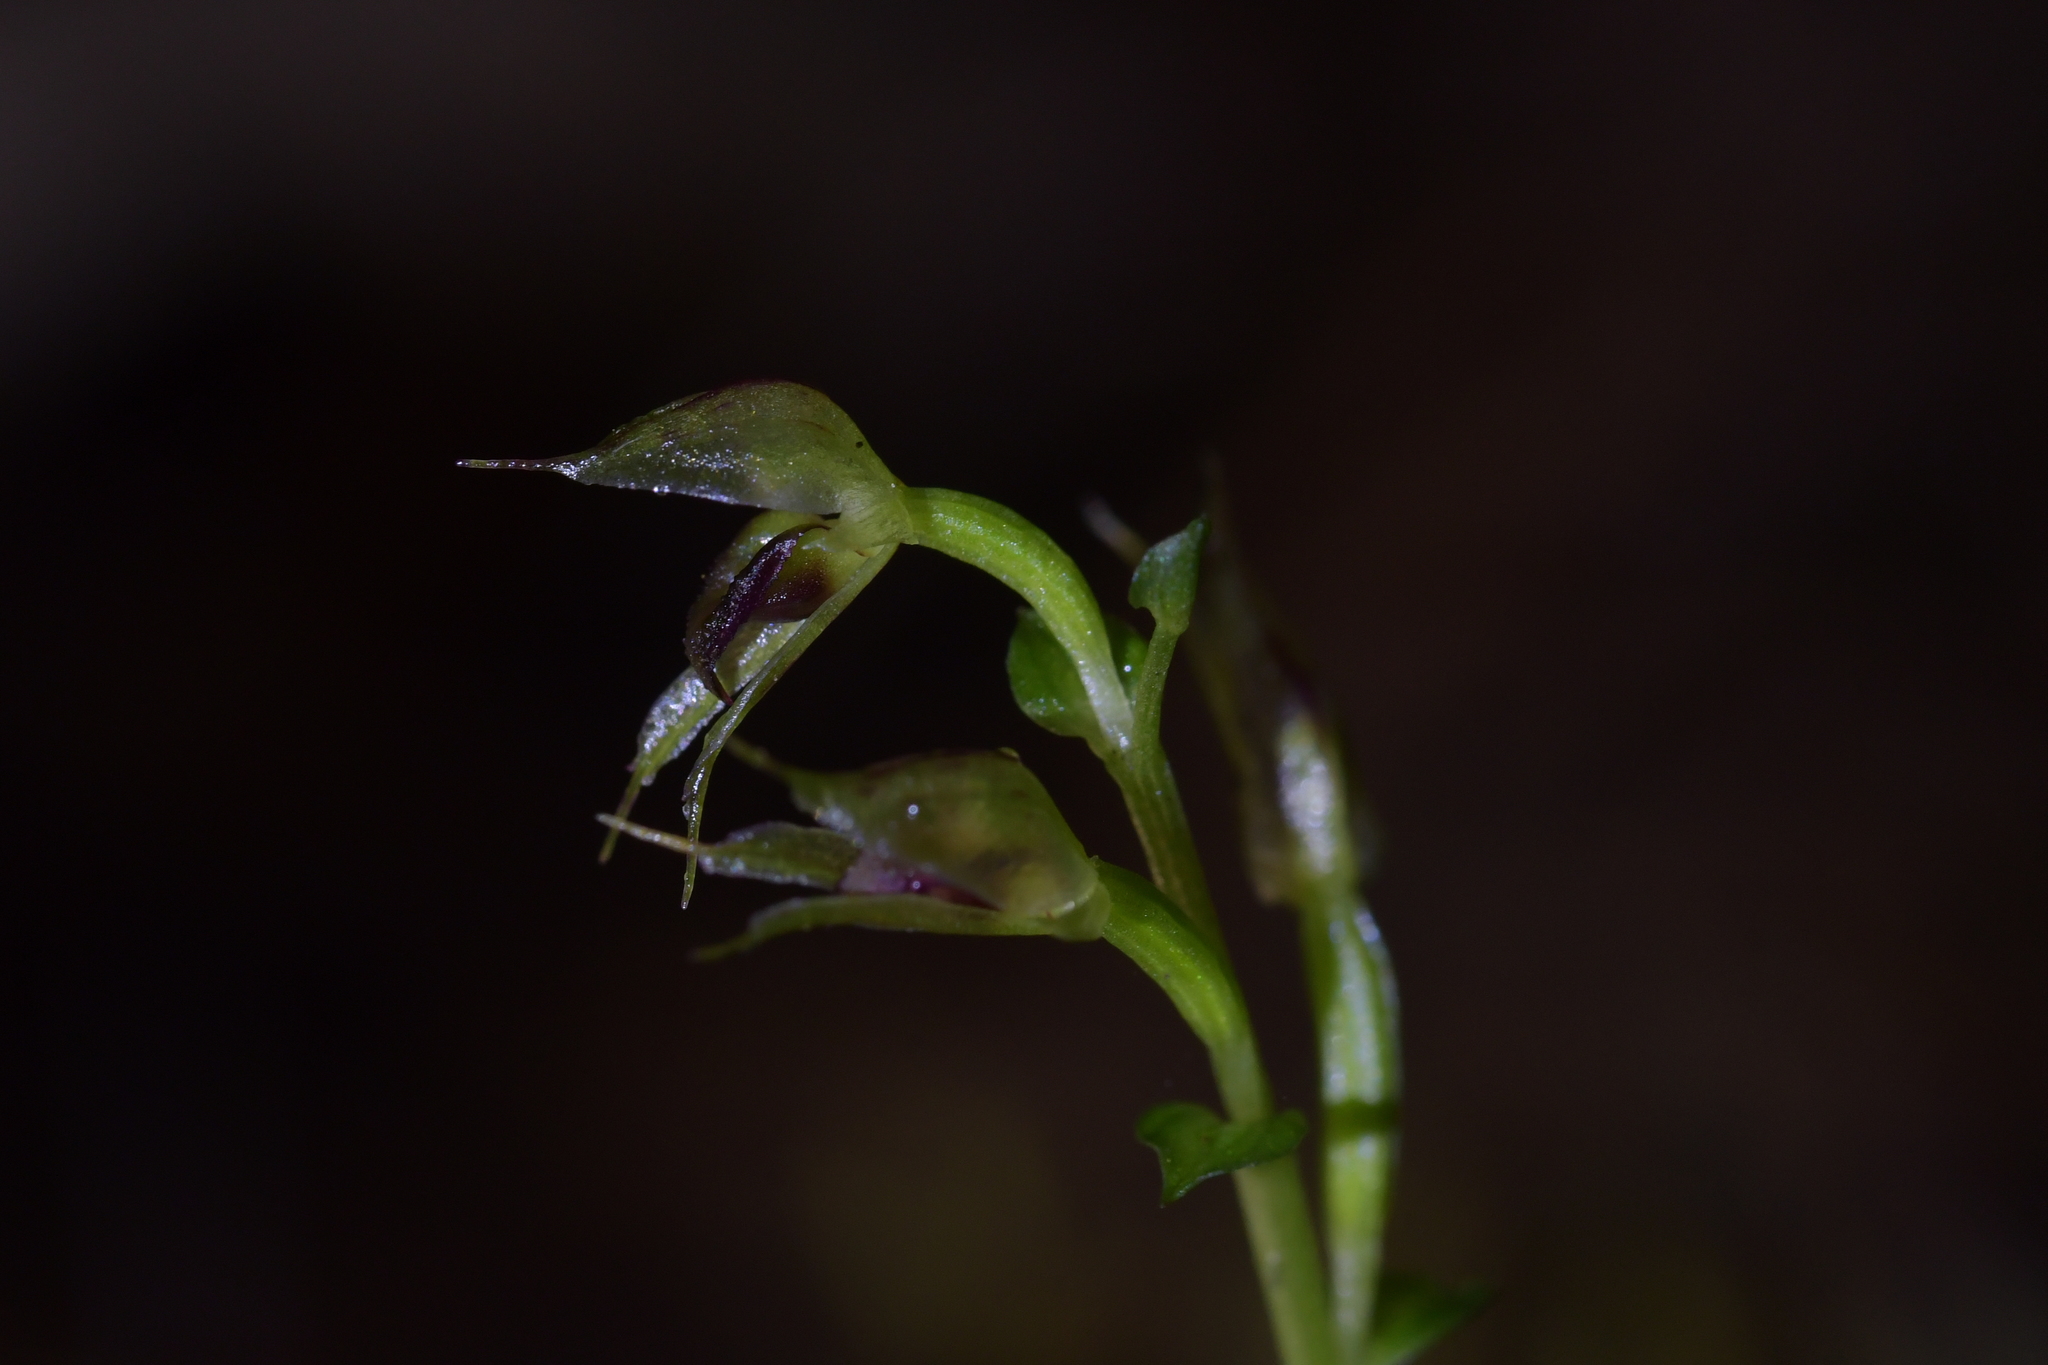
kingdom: Plantae
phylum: Tracheophyta
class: Liliopsida
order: Asparagales
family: Orchidaceae
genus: Acianthus
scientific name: Acianthus sinclairii
